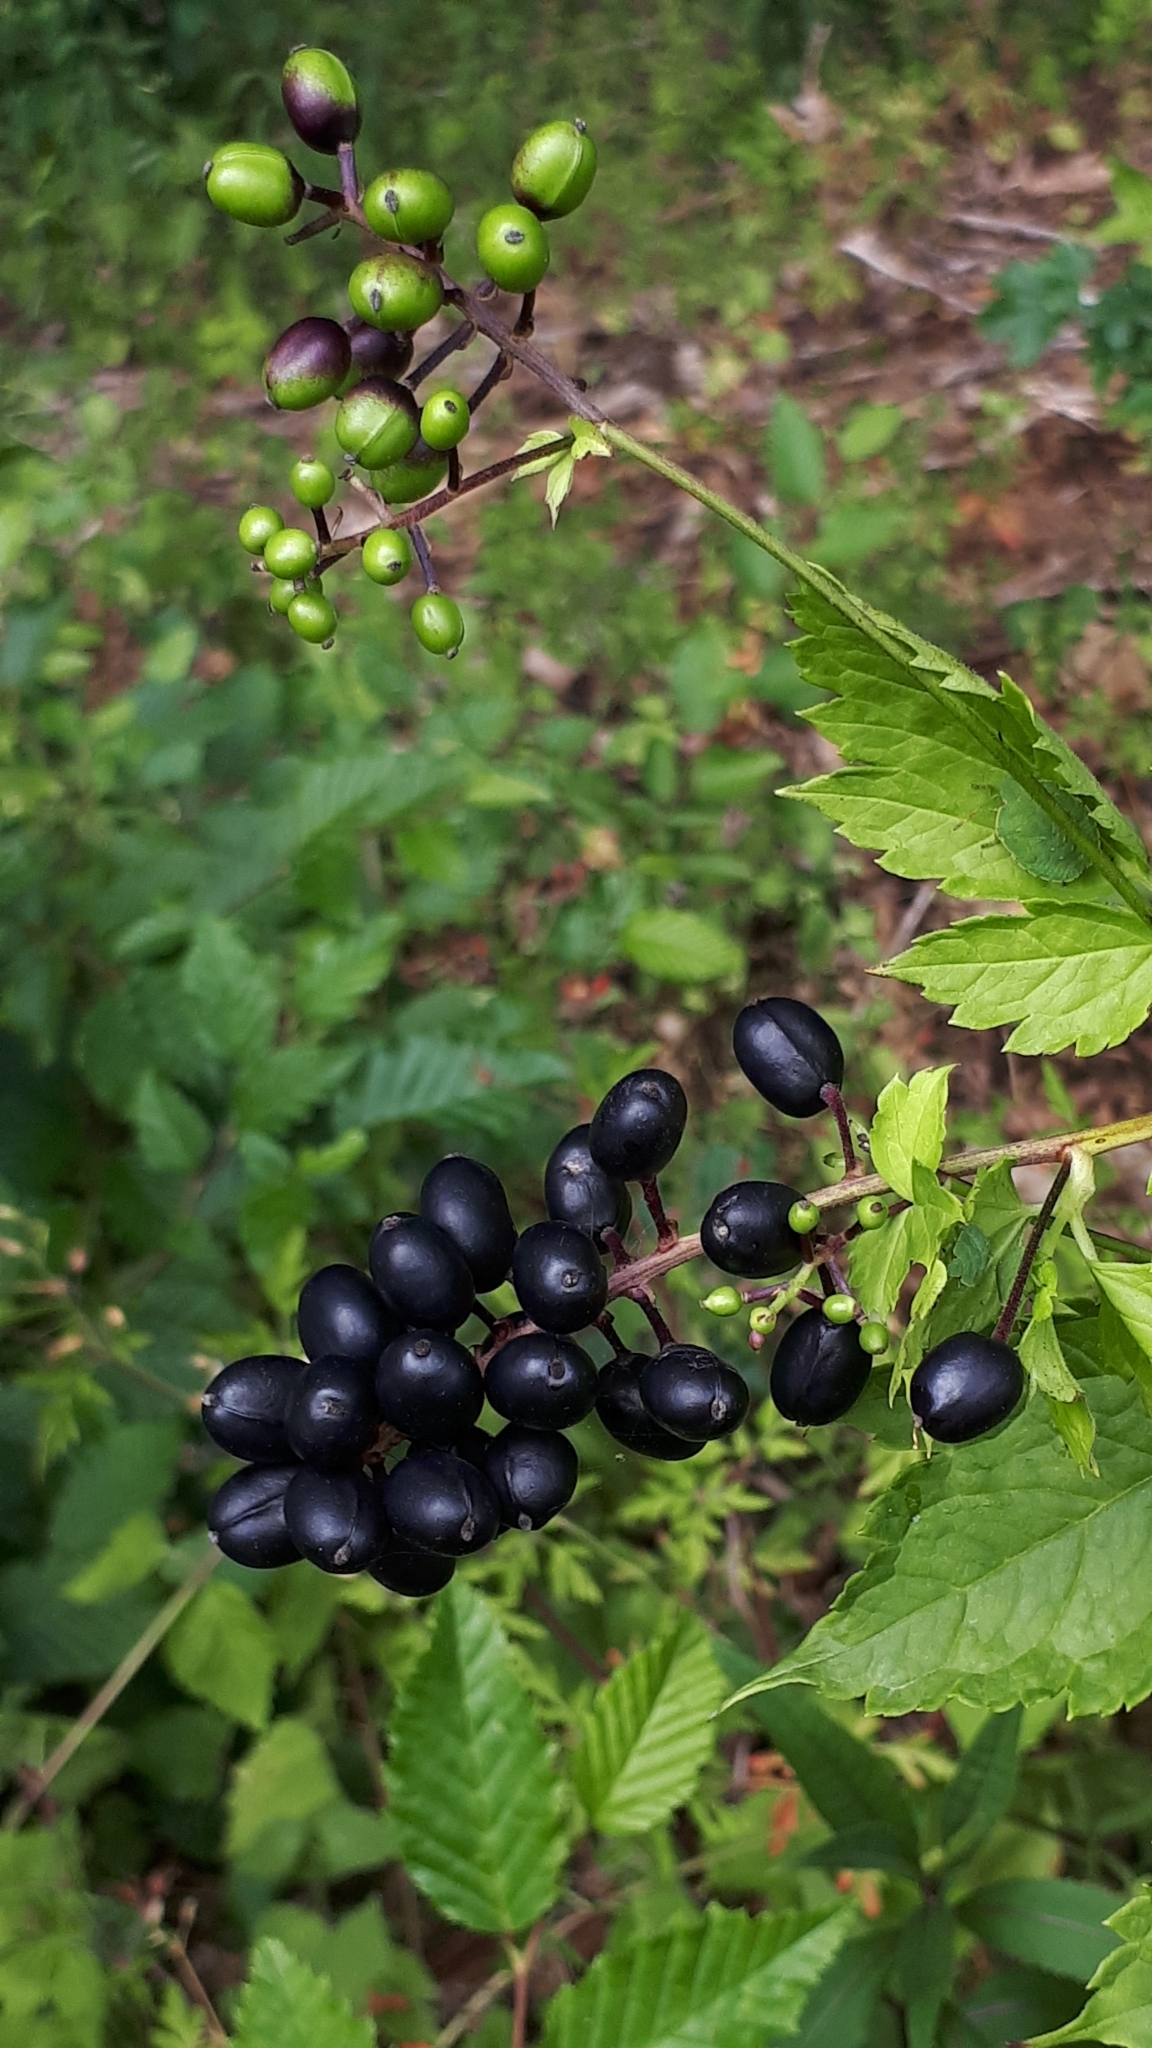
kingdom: Plantae
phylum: Tracheophyta
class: Magnoliopsida
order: Ranunculales
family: Ranunculaceae
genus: Actaea
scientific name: Actaea spicata
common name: Baneberry
